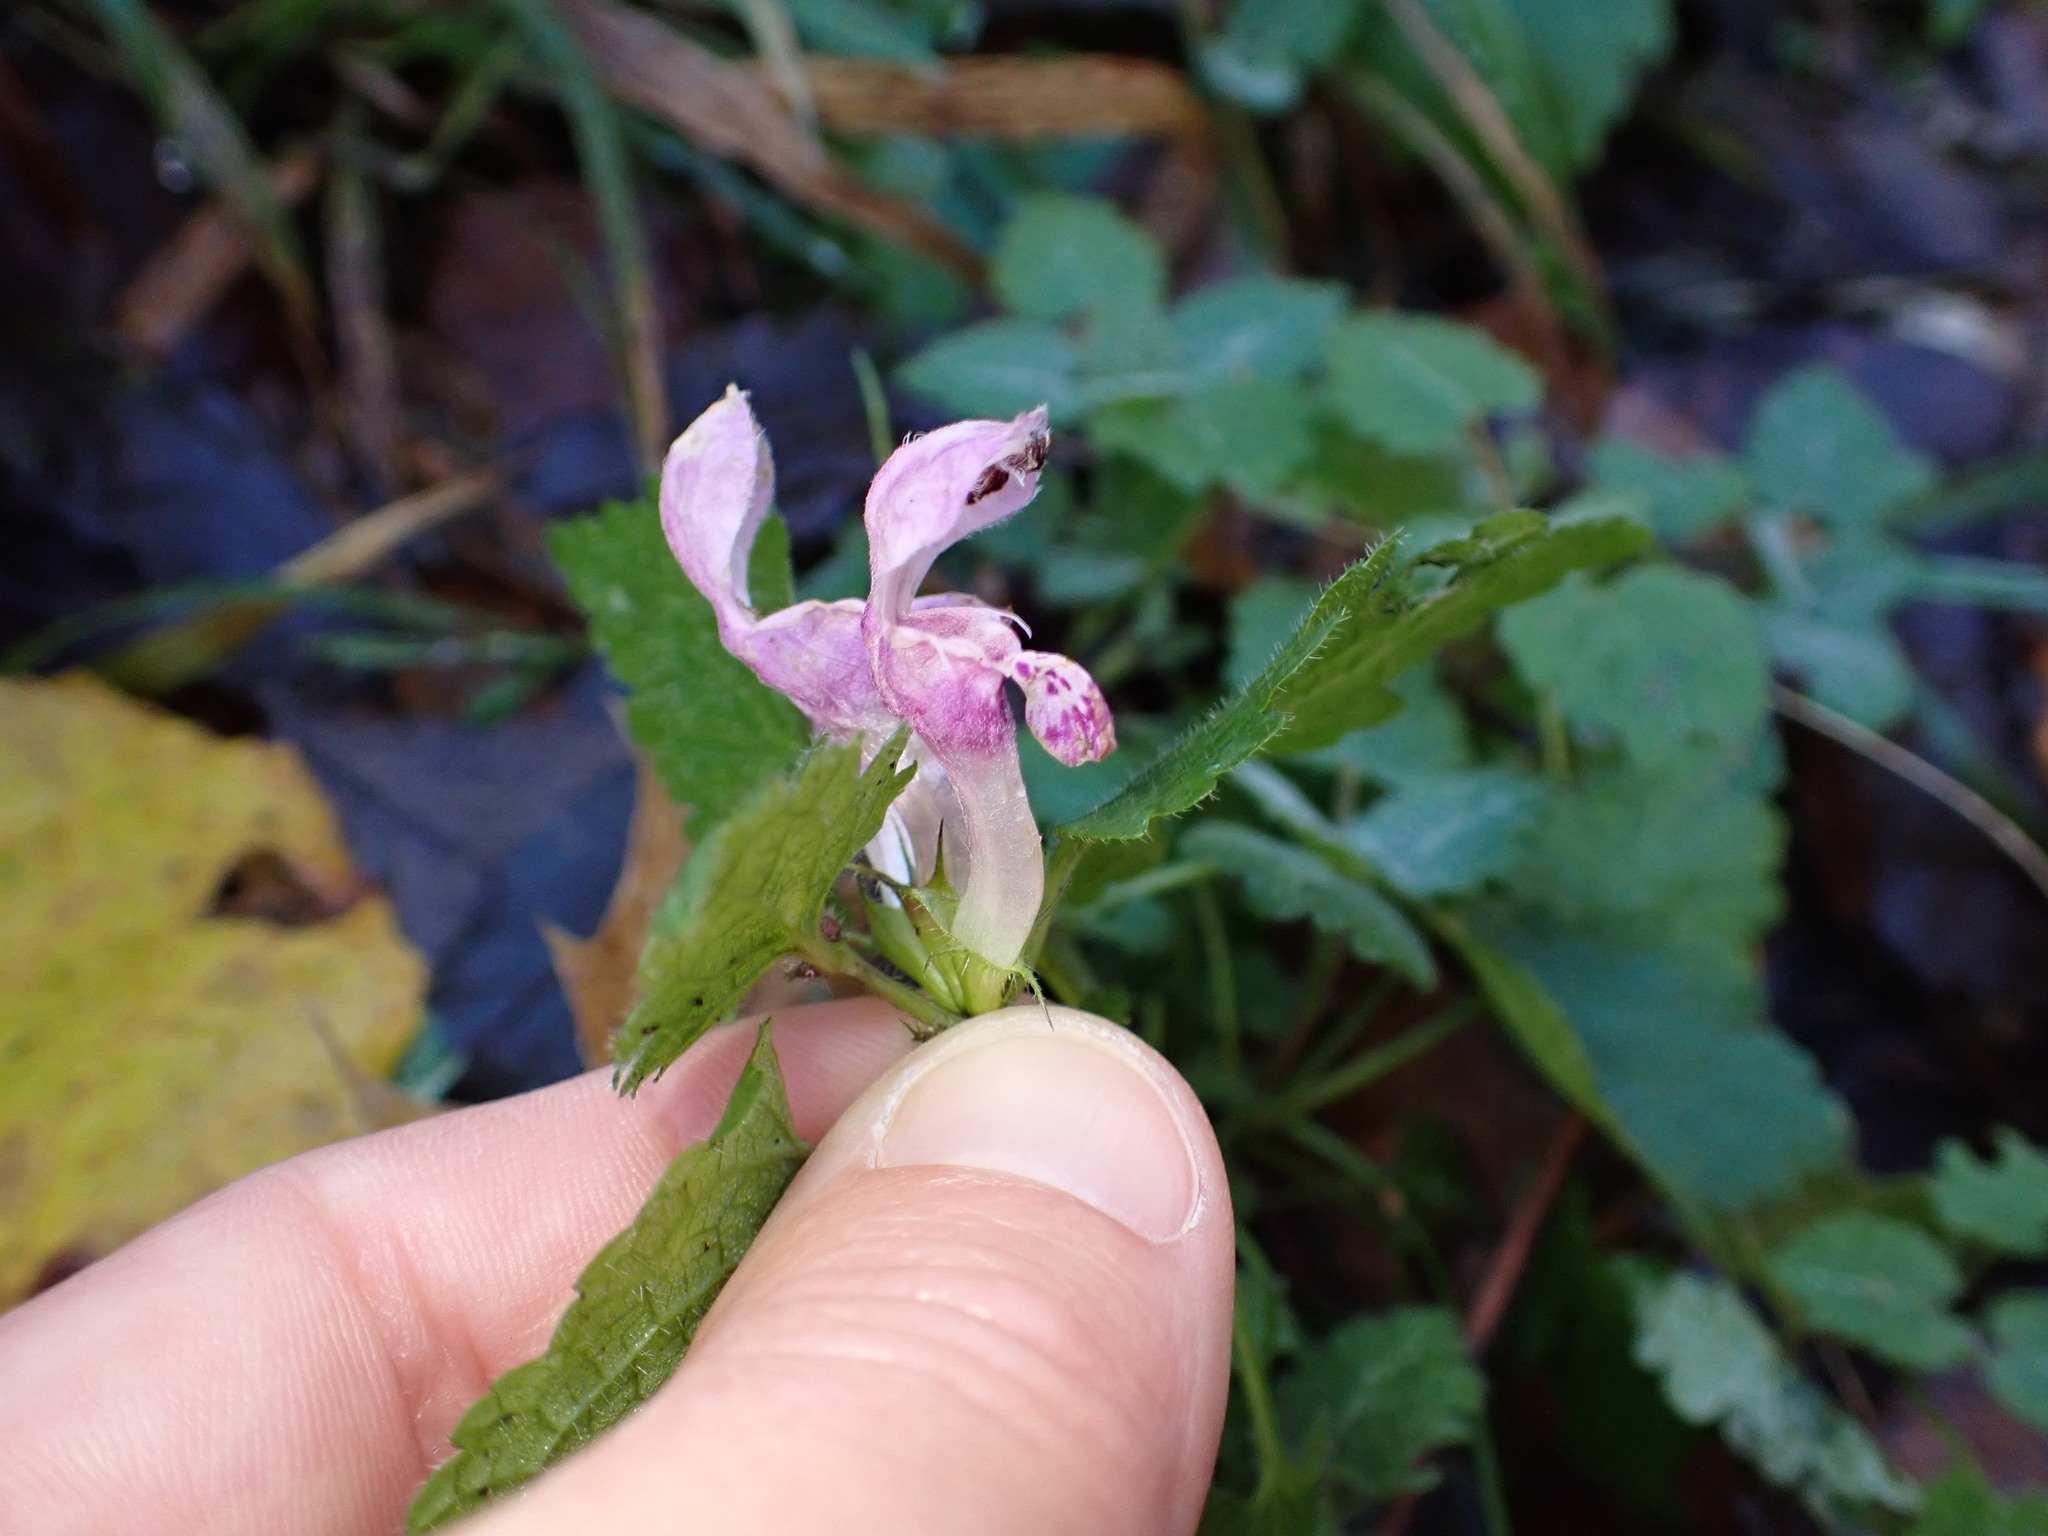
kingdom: Plantae
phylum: Tracheophyta
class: Magnoliopsida
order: Lamiales
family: Lamiaceae
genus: Lamium
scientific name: Lamium maculatum
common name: Spotted dead-nettle
